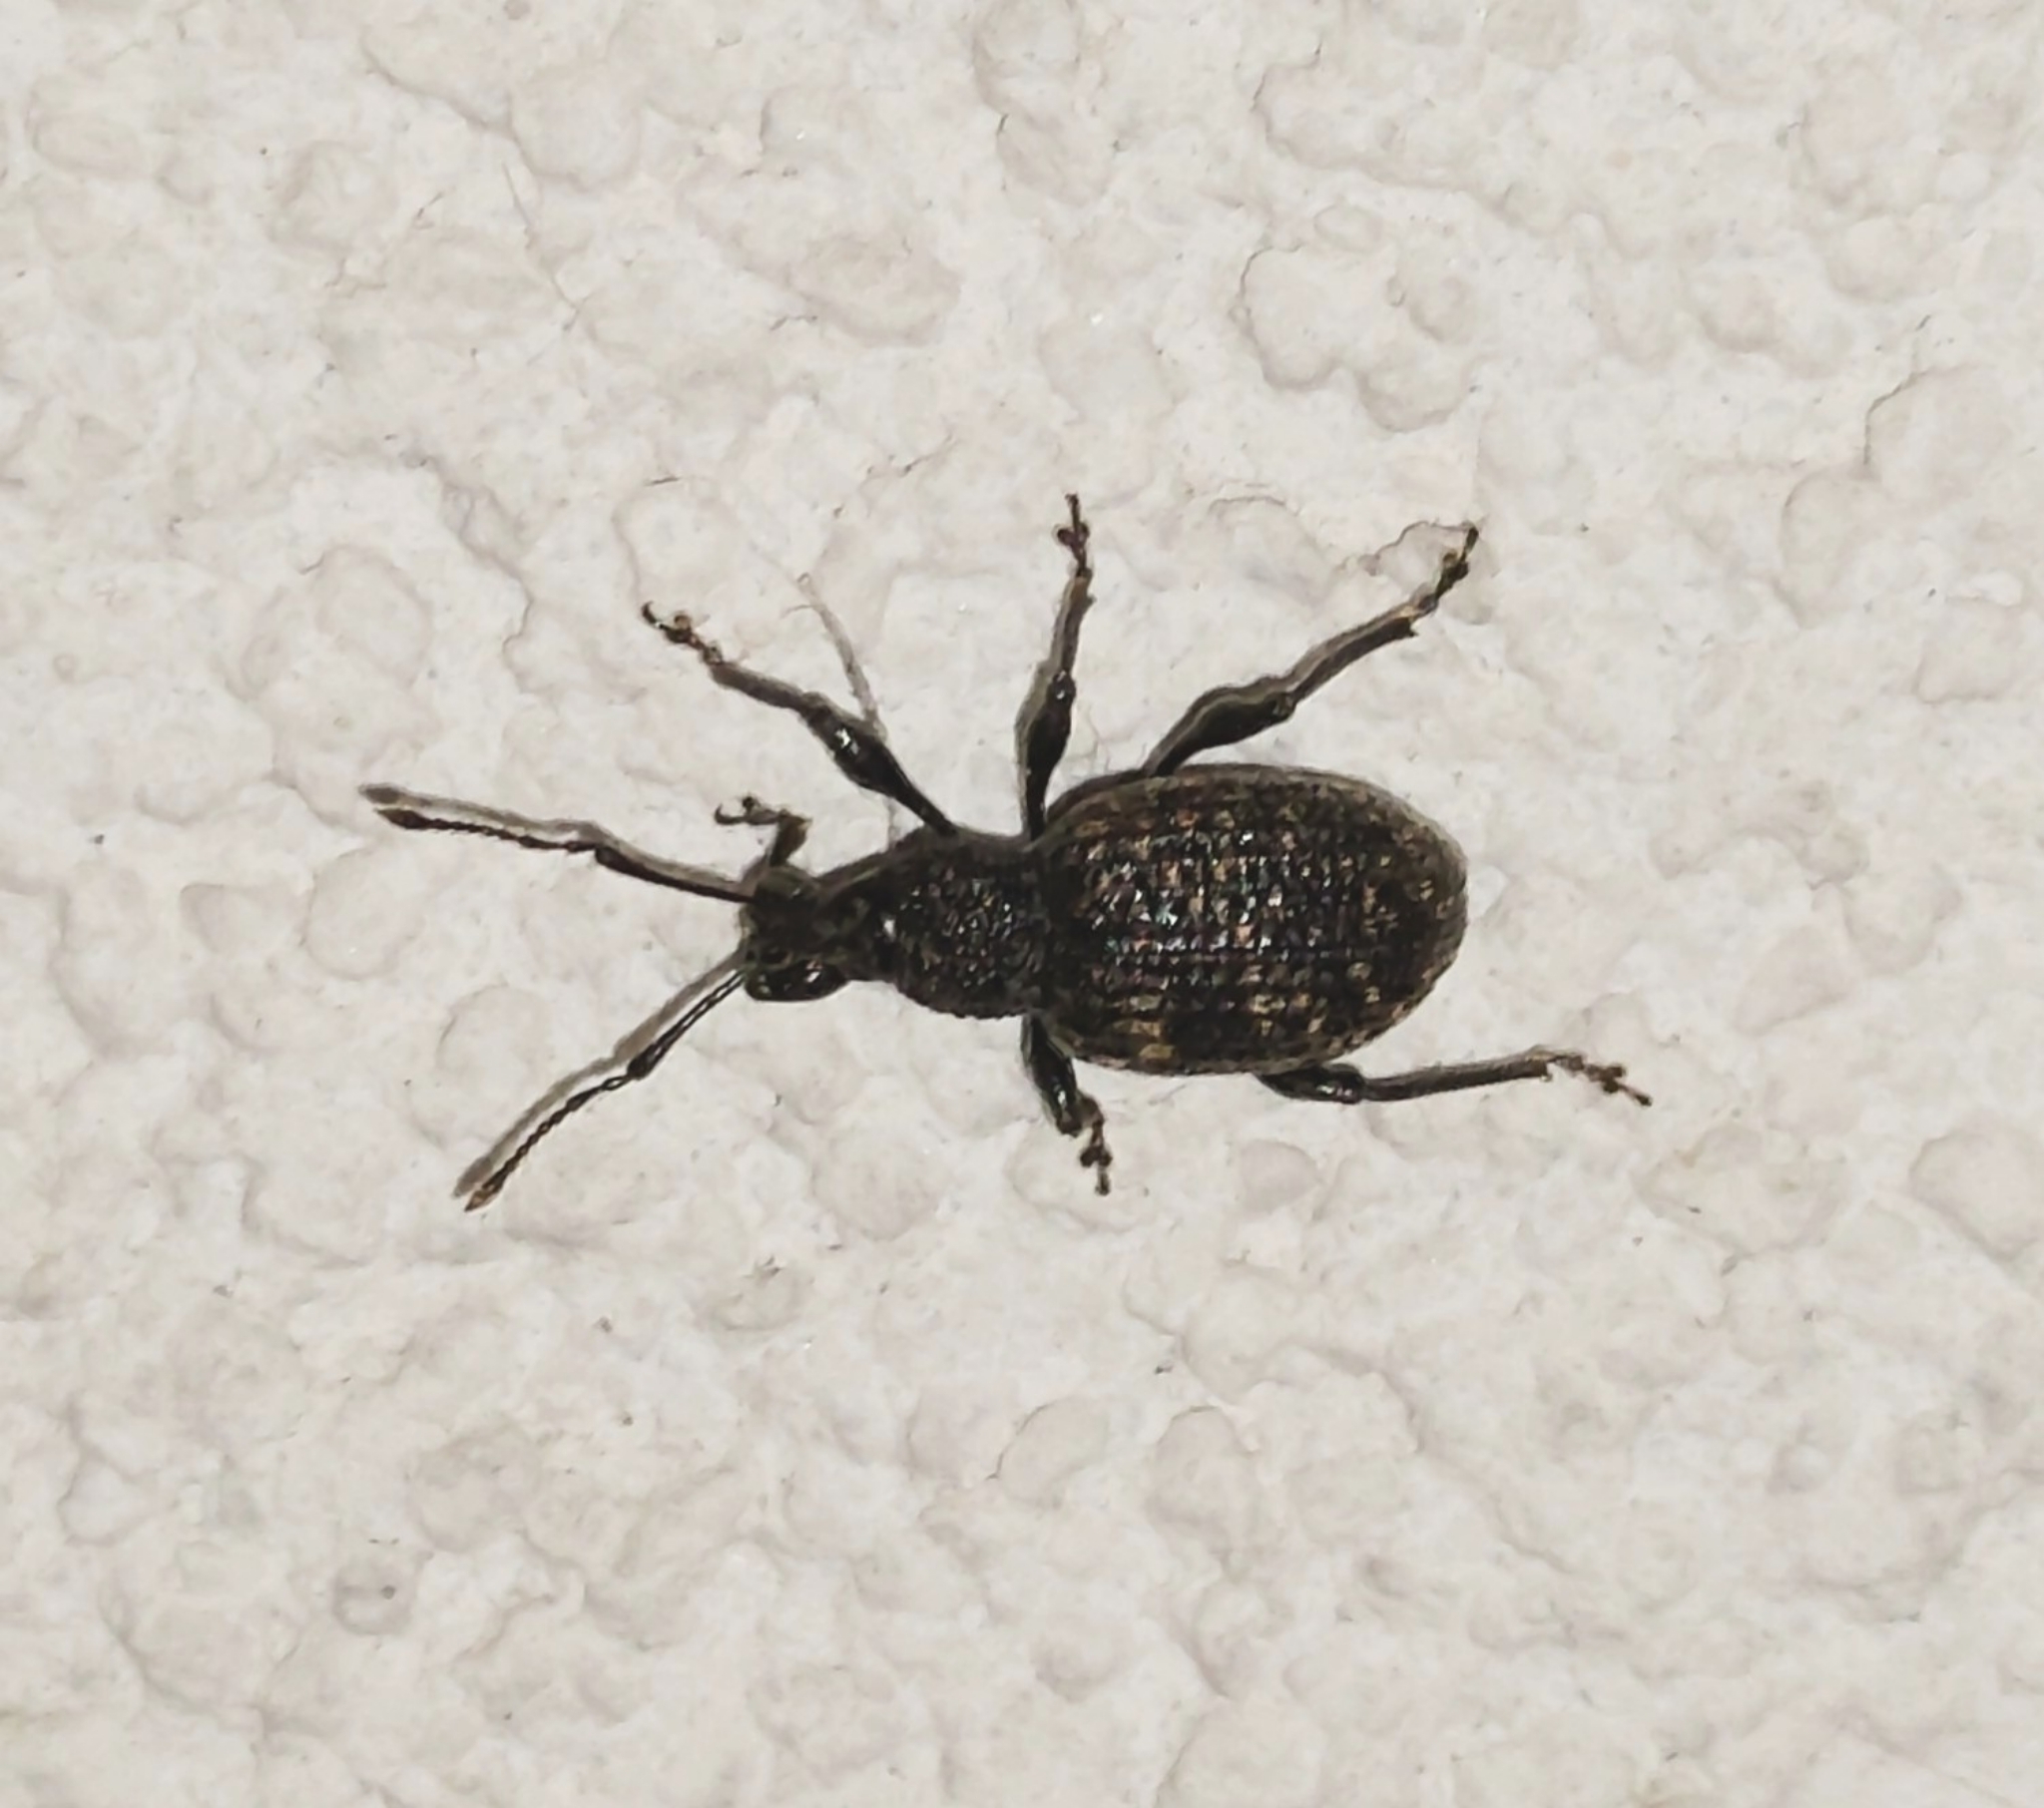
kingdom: Animalia
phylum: Arthropoda
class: Insecta
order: Coleoptera
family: Curculionidae
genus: Otiorhynchus
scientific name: Otiorhynchus sulcatus
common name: Black vine weevil
